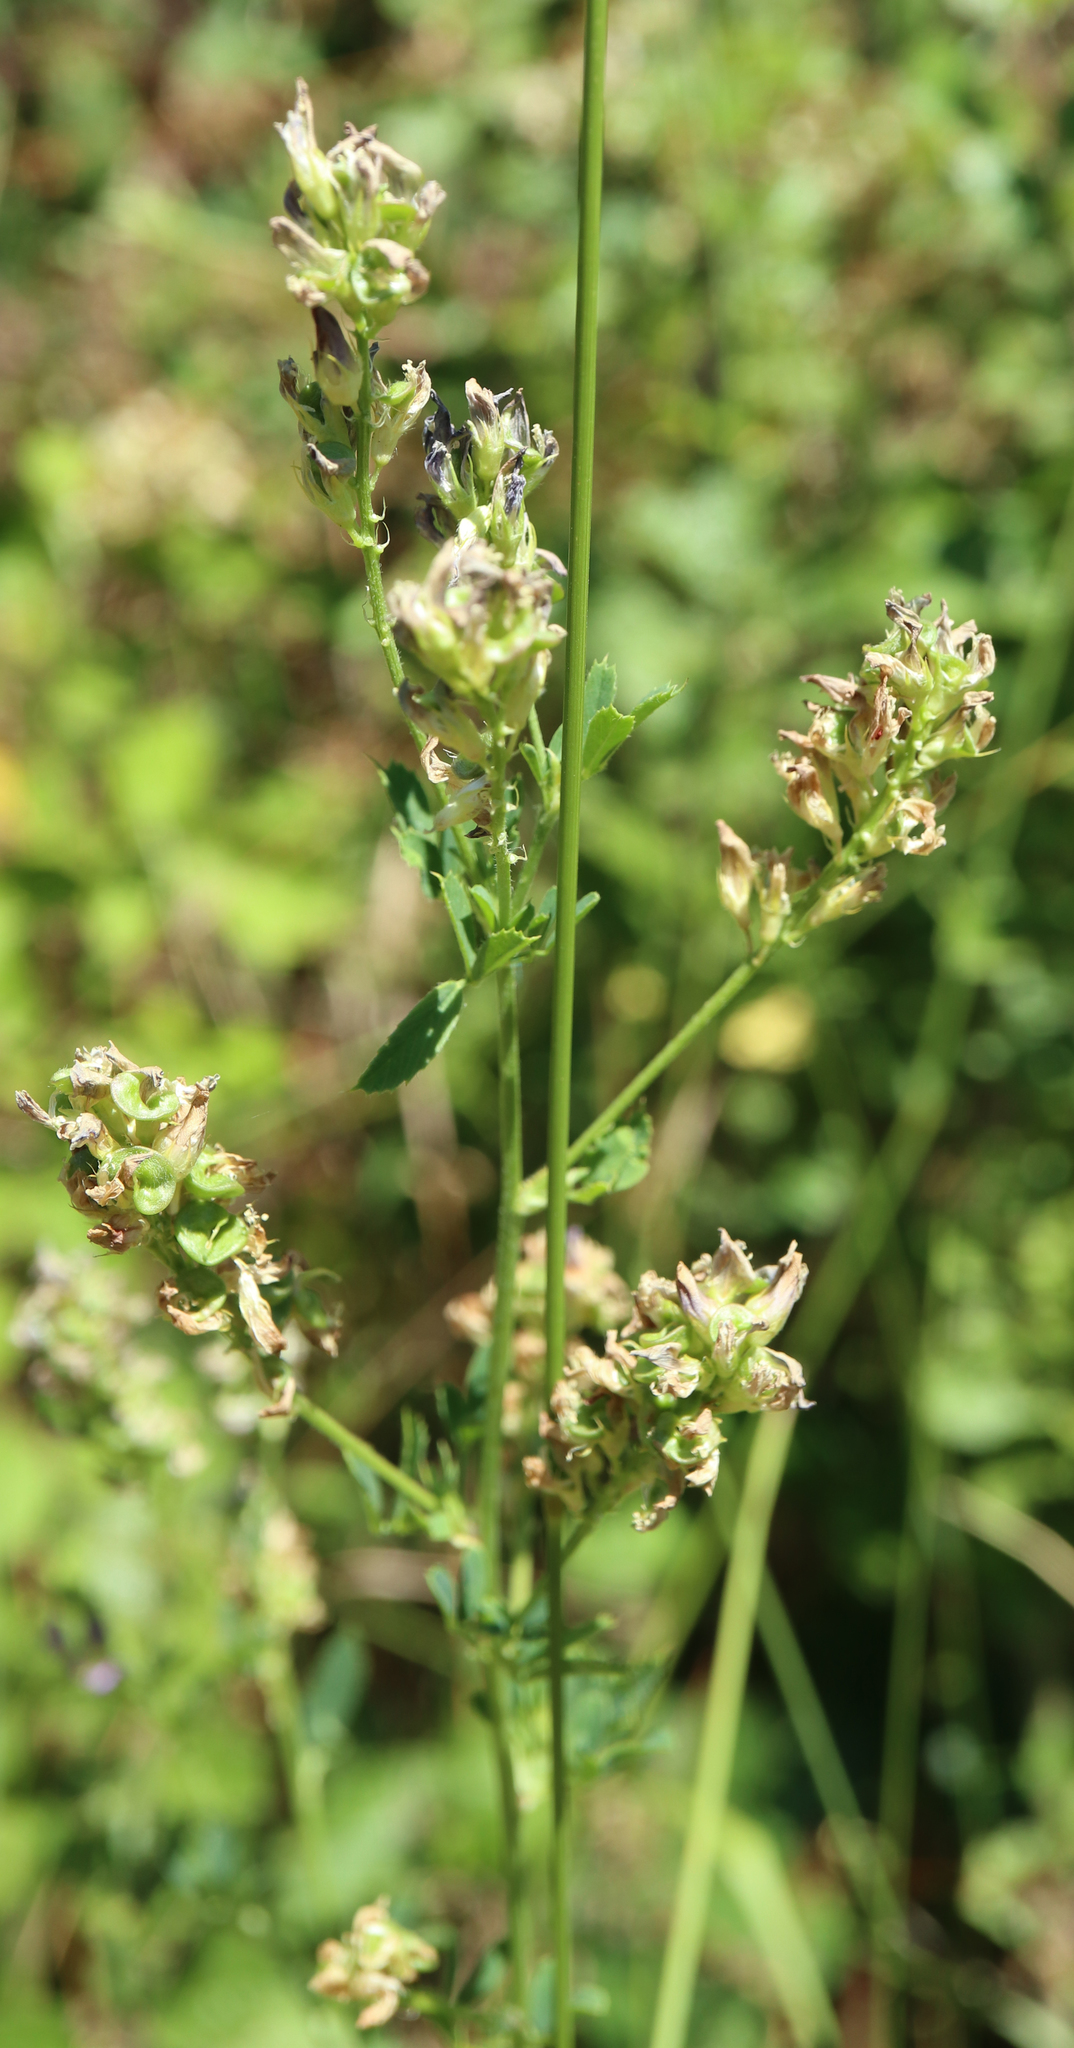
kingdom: Plantae
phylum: Tracheophyta
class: Magnoliopsida
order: Fabales
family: Fabaceae
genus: Medicago
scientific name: Medicago sativa
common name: Alfalfa
